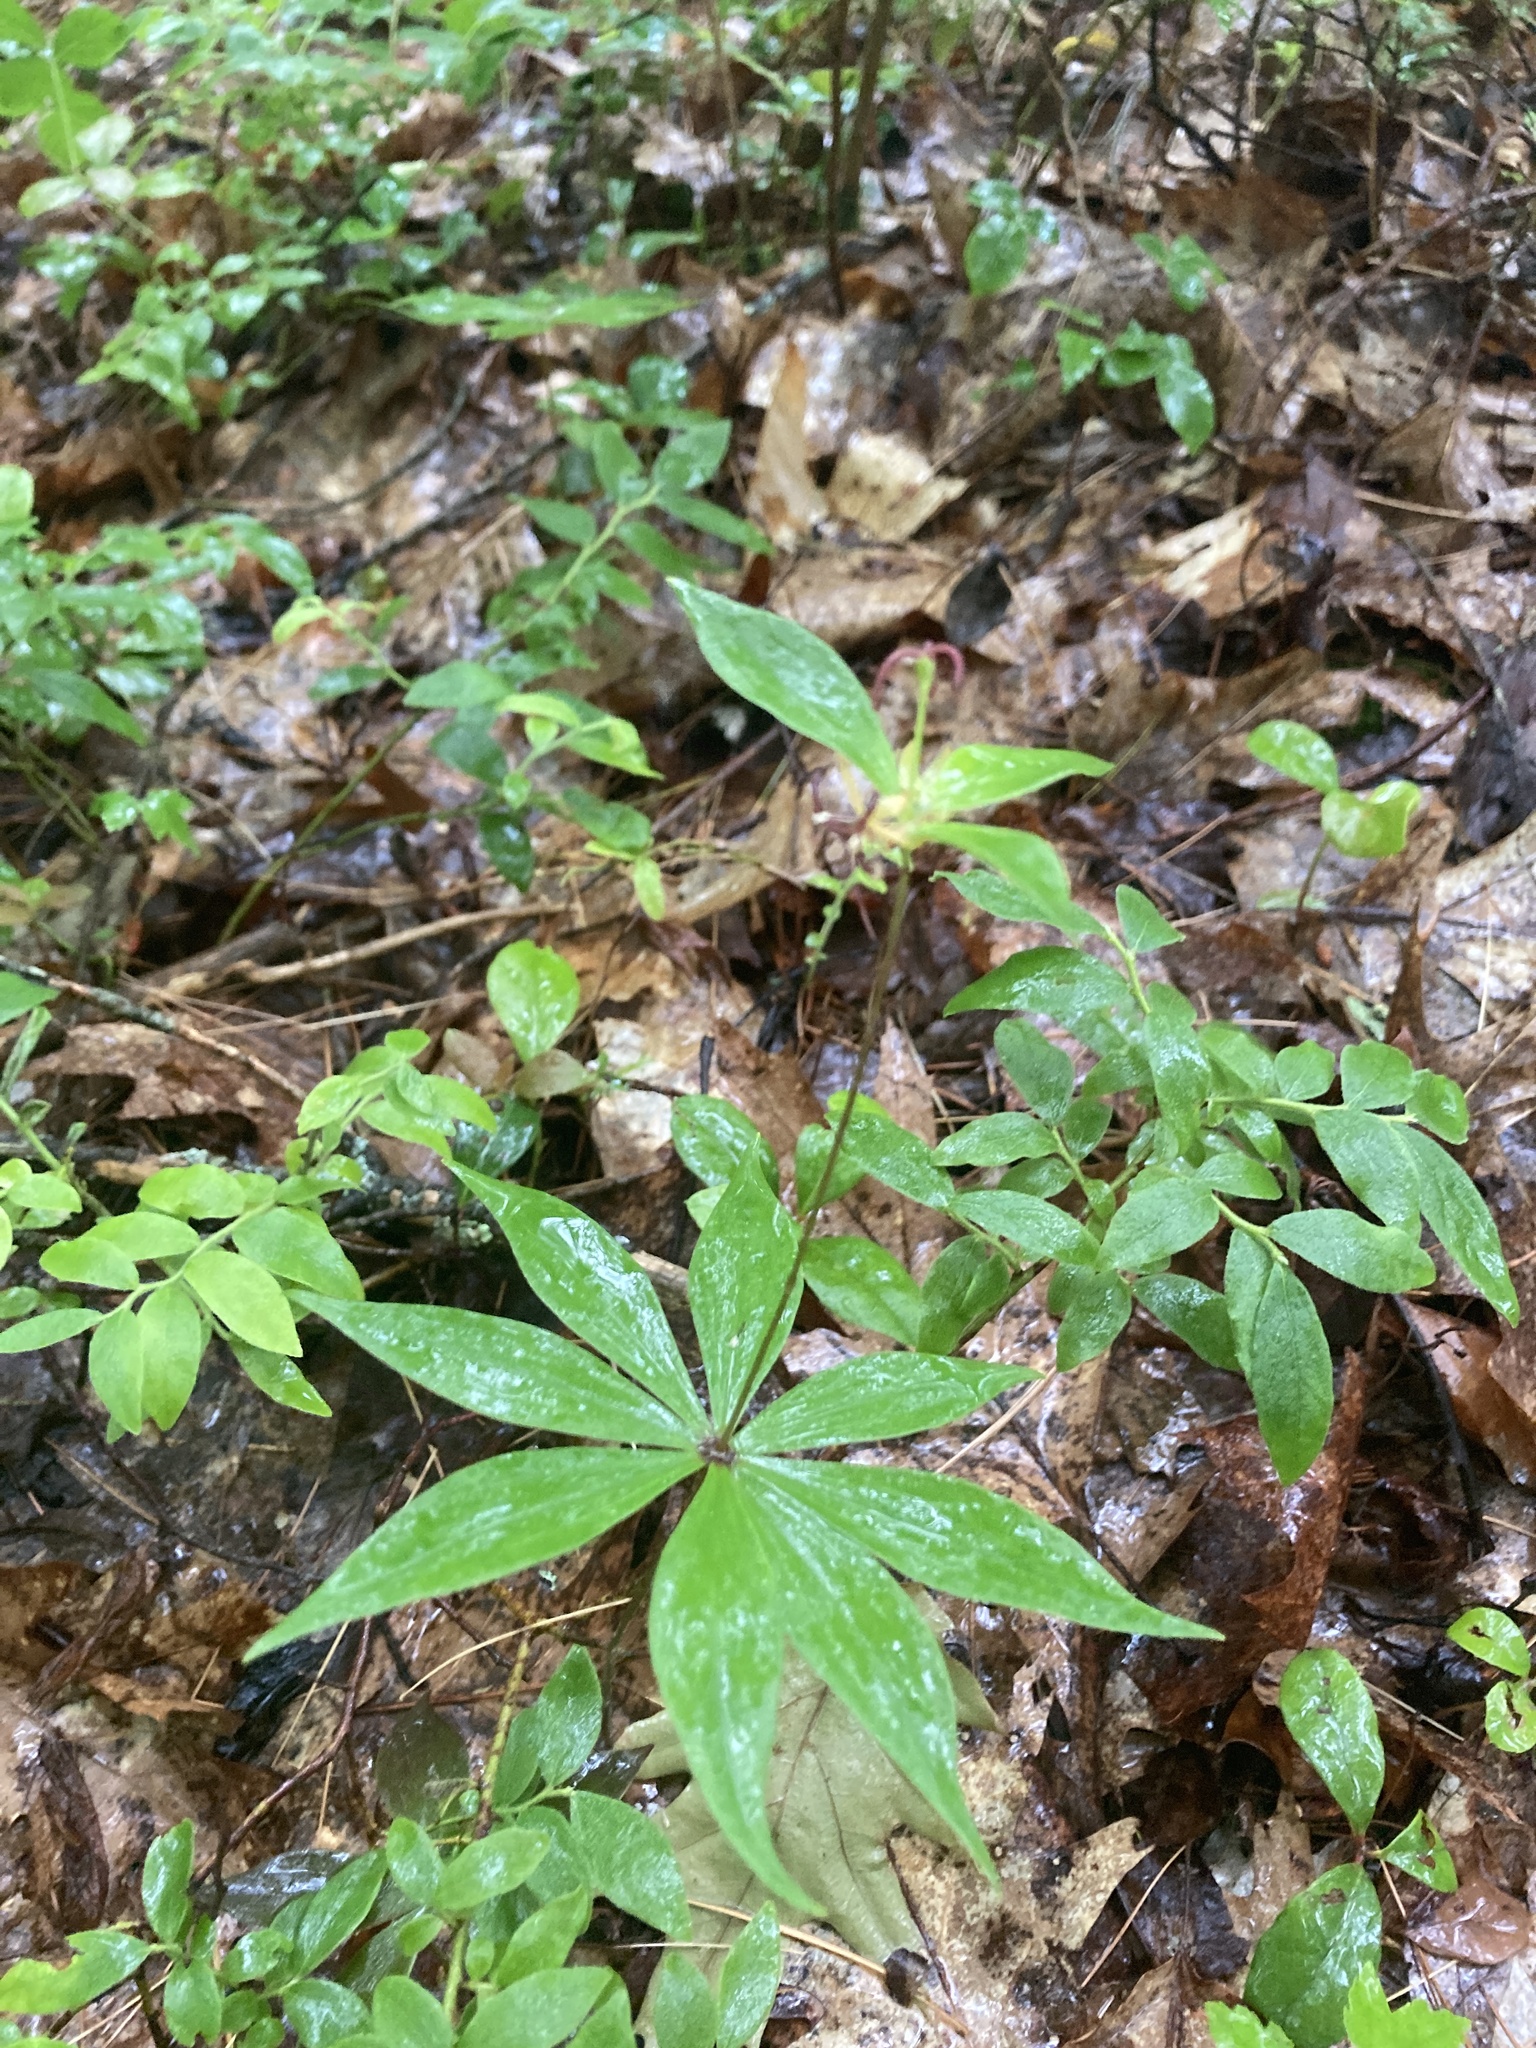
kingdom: Plantae
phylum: Tracheophyta
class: Liliopsida
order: Liliales
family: Liliaceae
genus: Medeola
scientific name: Medeola virginiana
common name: Indian cucumber-root
